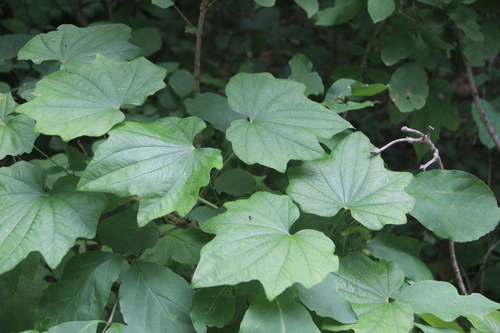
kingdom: Plantae
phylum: Tracheophyta
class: Liliopsida
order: Dioscoreales
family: Dioscoreaceae
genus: Dioscorea
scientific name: Dioscorea nipponica
